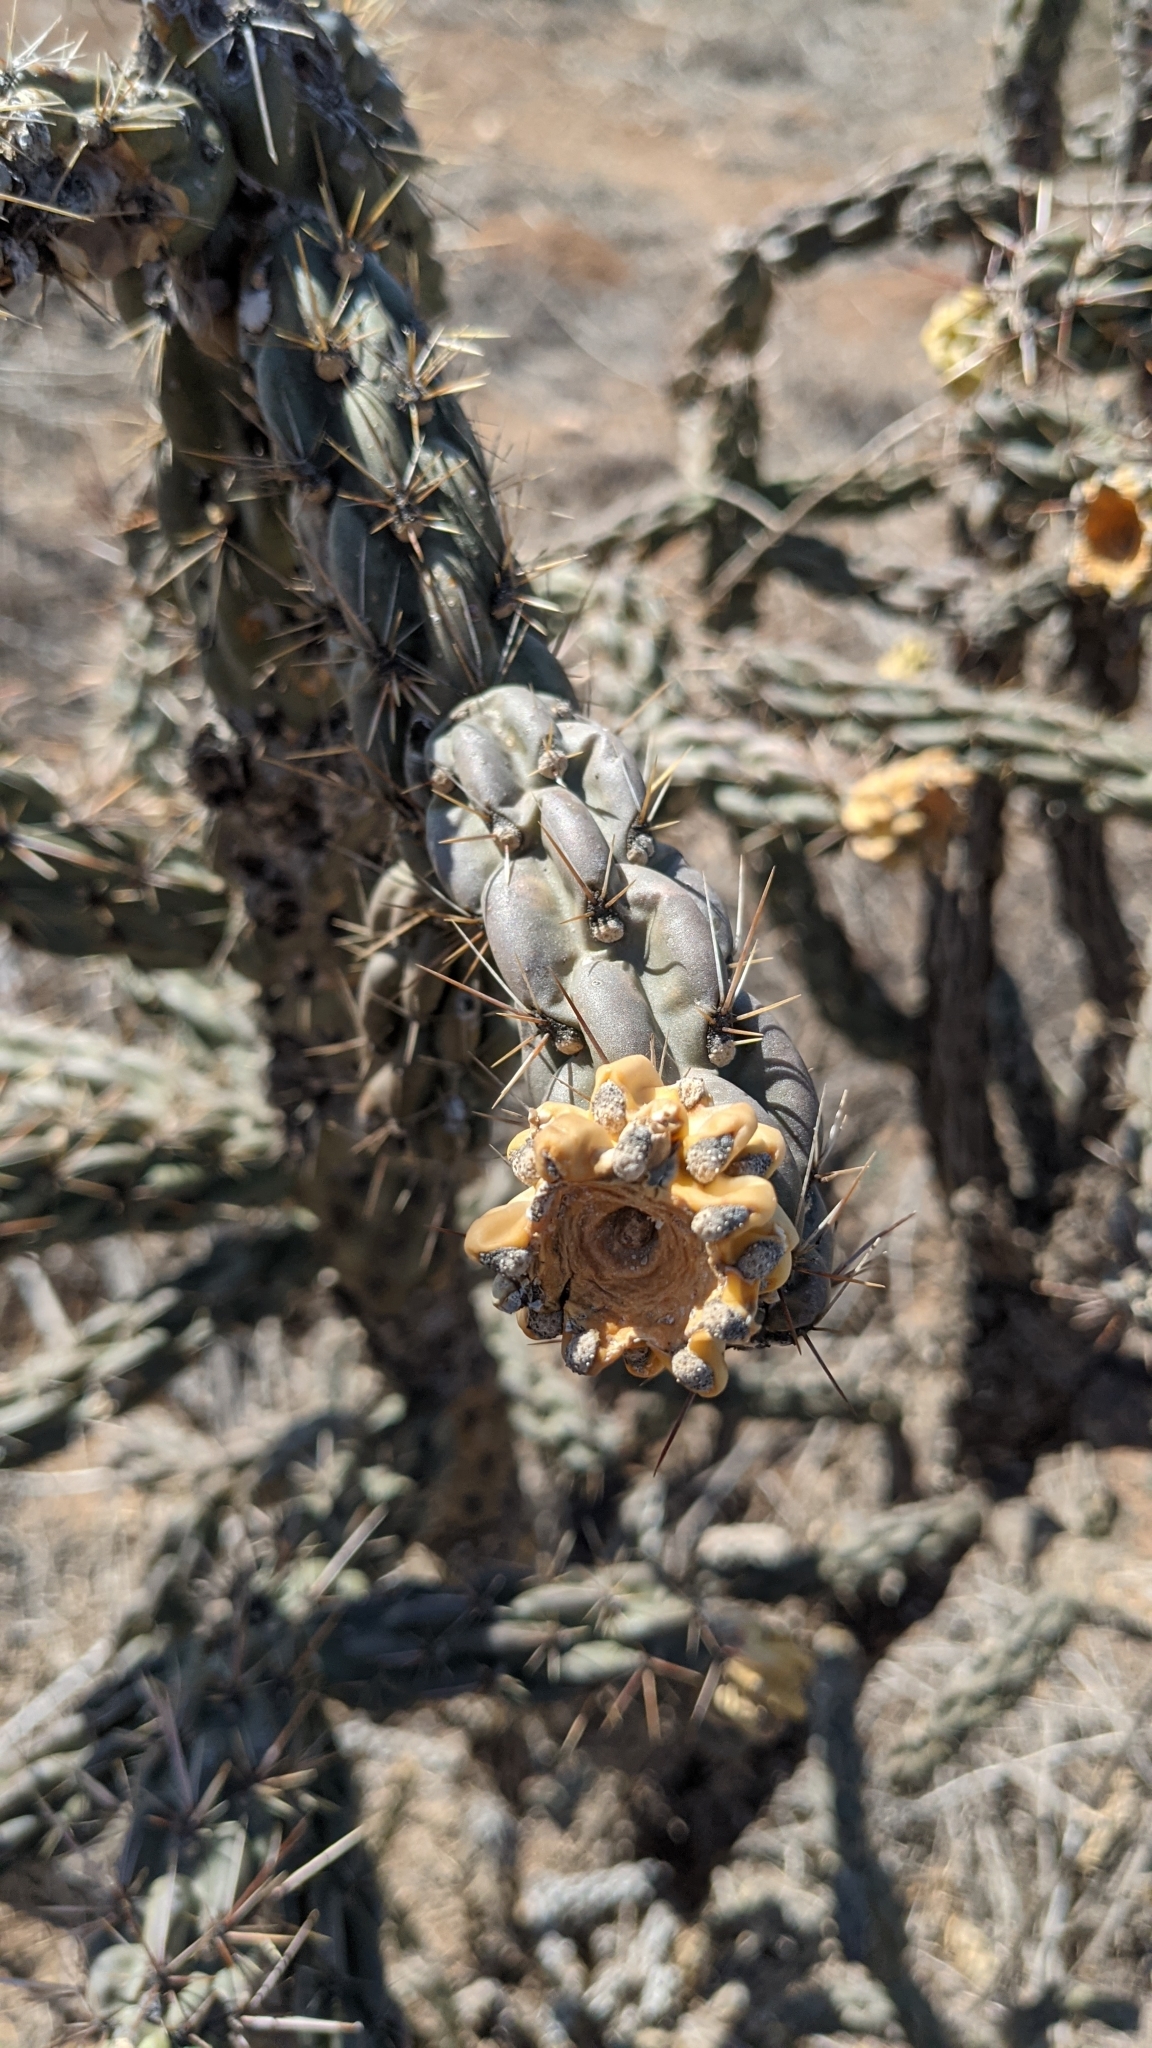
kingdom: Plantae
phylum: Tracheophyta
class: Magnoliopsida
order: Caryophyllales
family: Cactaceae
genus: Cylindropuntia
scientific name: Cylindropuntia imbricata
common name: Candelabrum cactus
